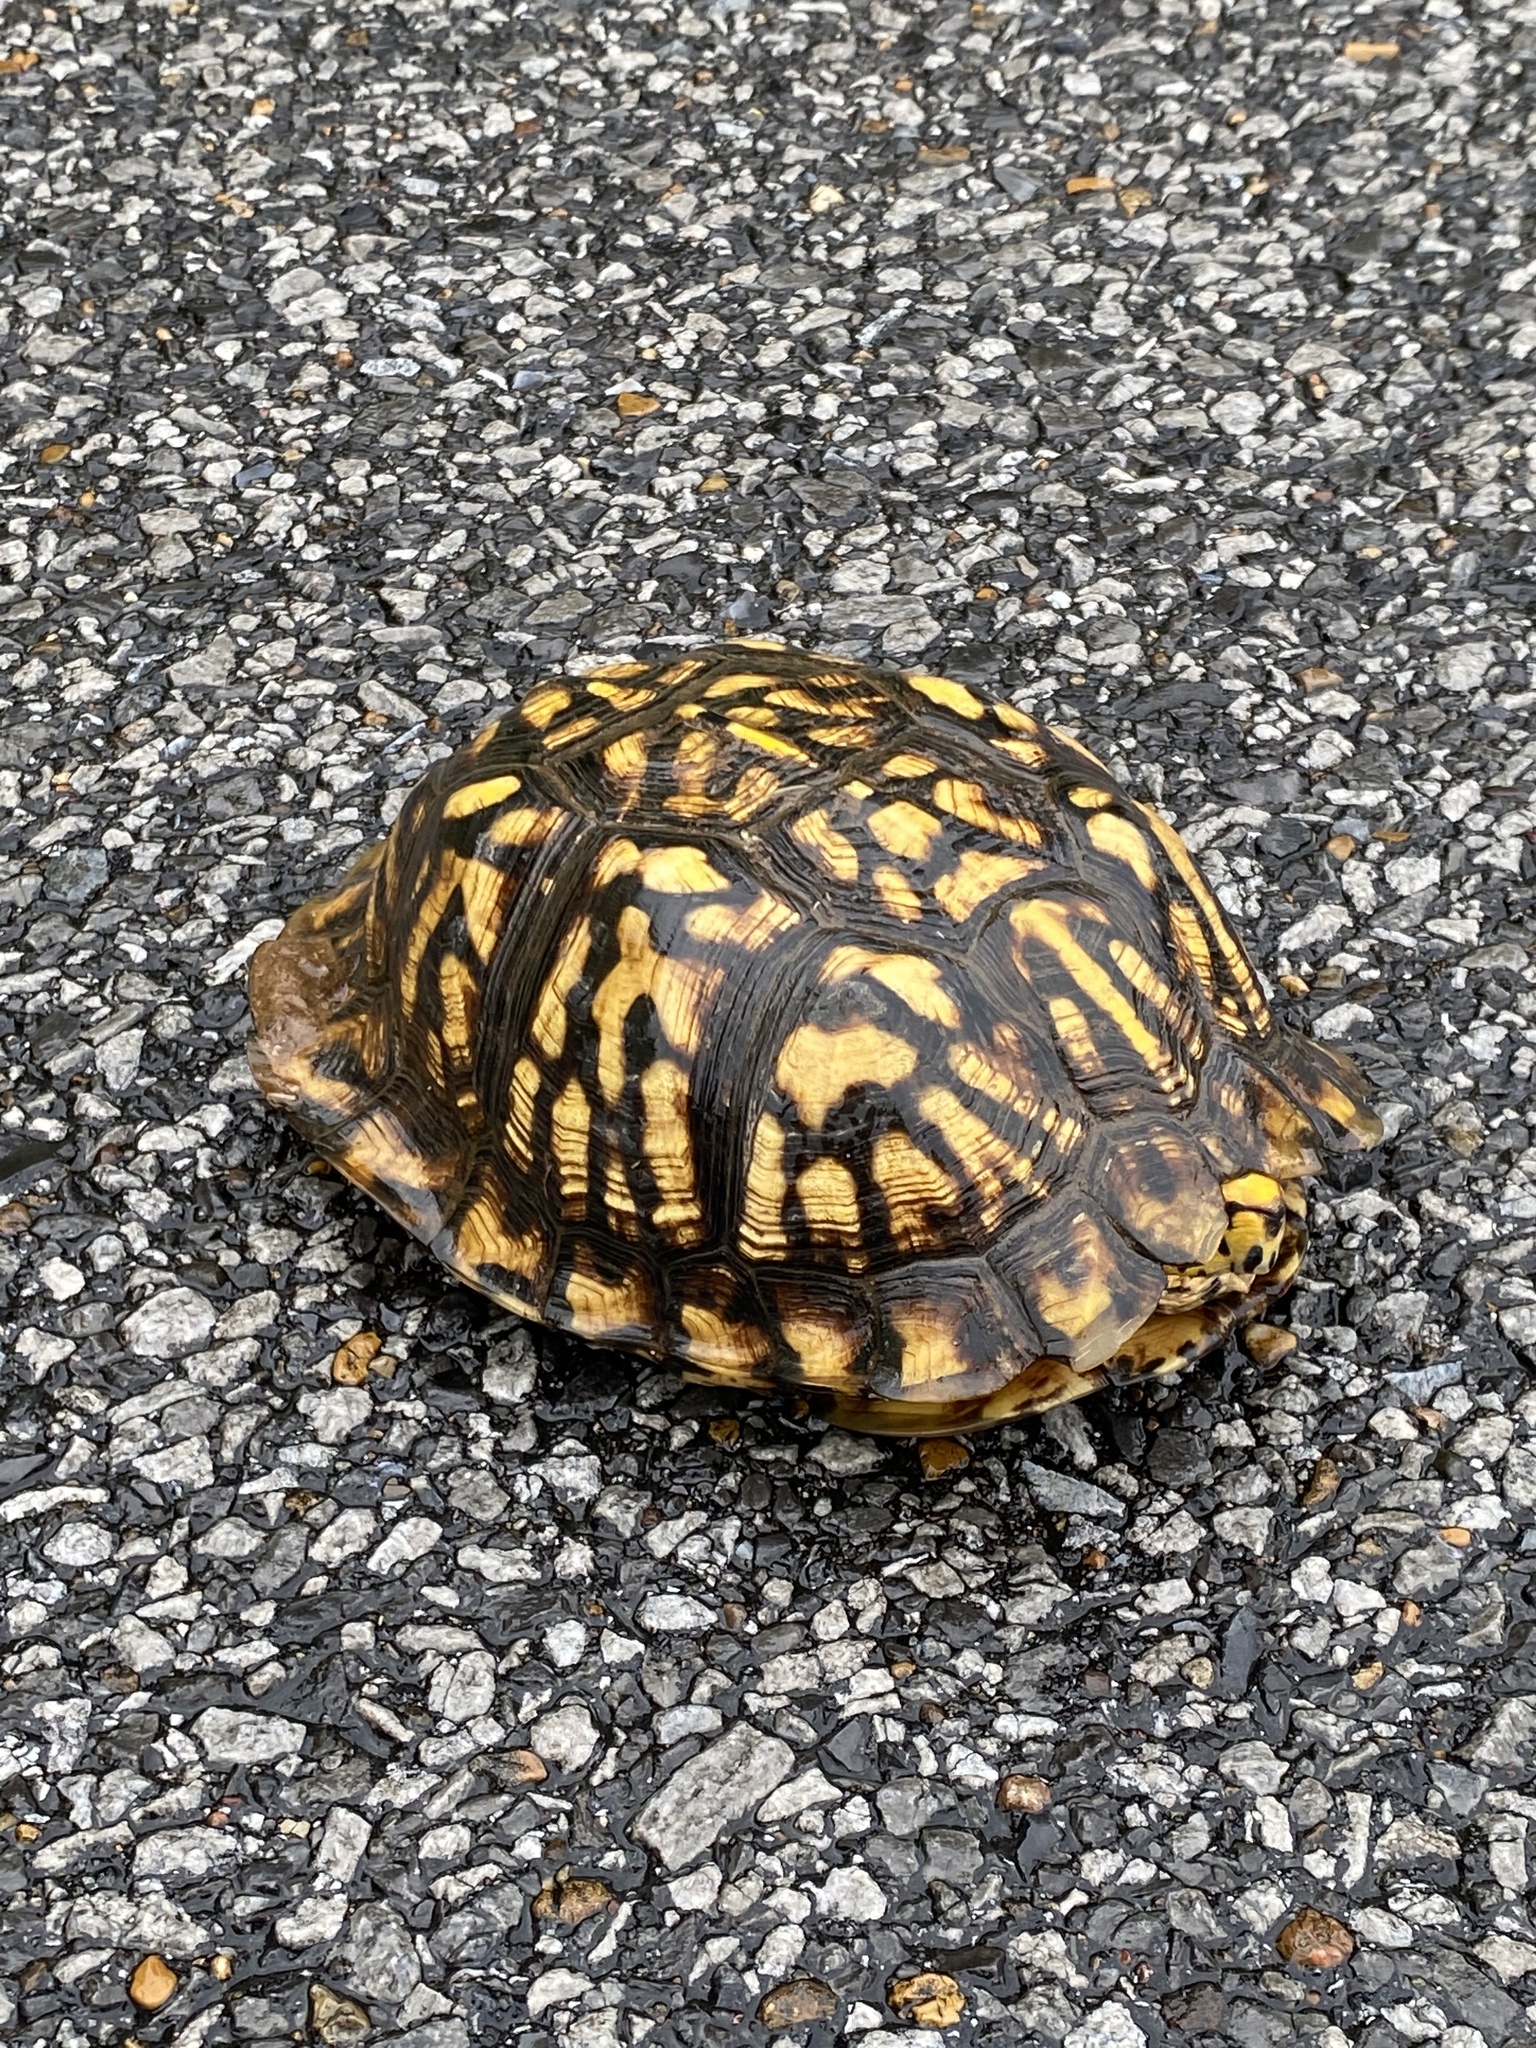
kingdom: Animalia
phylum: Chordata
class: Testudines
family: Emydidae
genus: Terrapene
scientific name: Terrapene carolina
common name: Common box turtle
